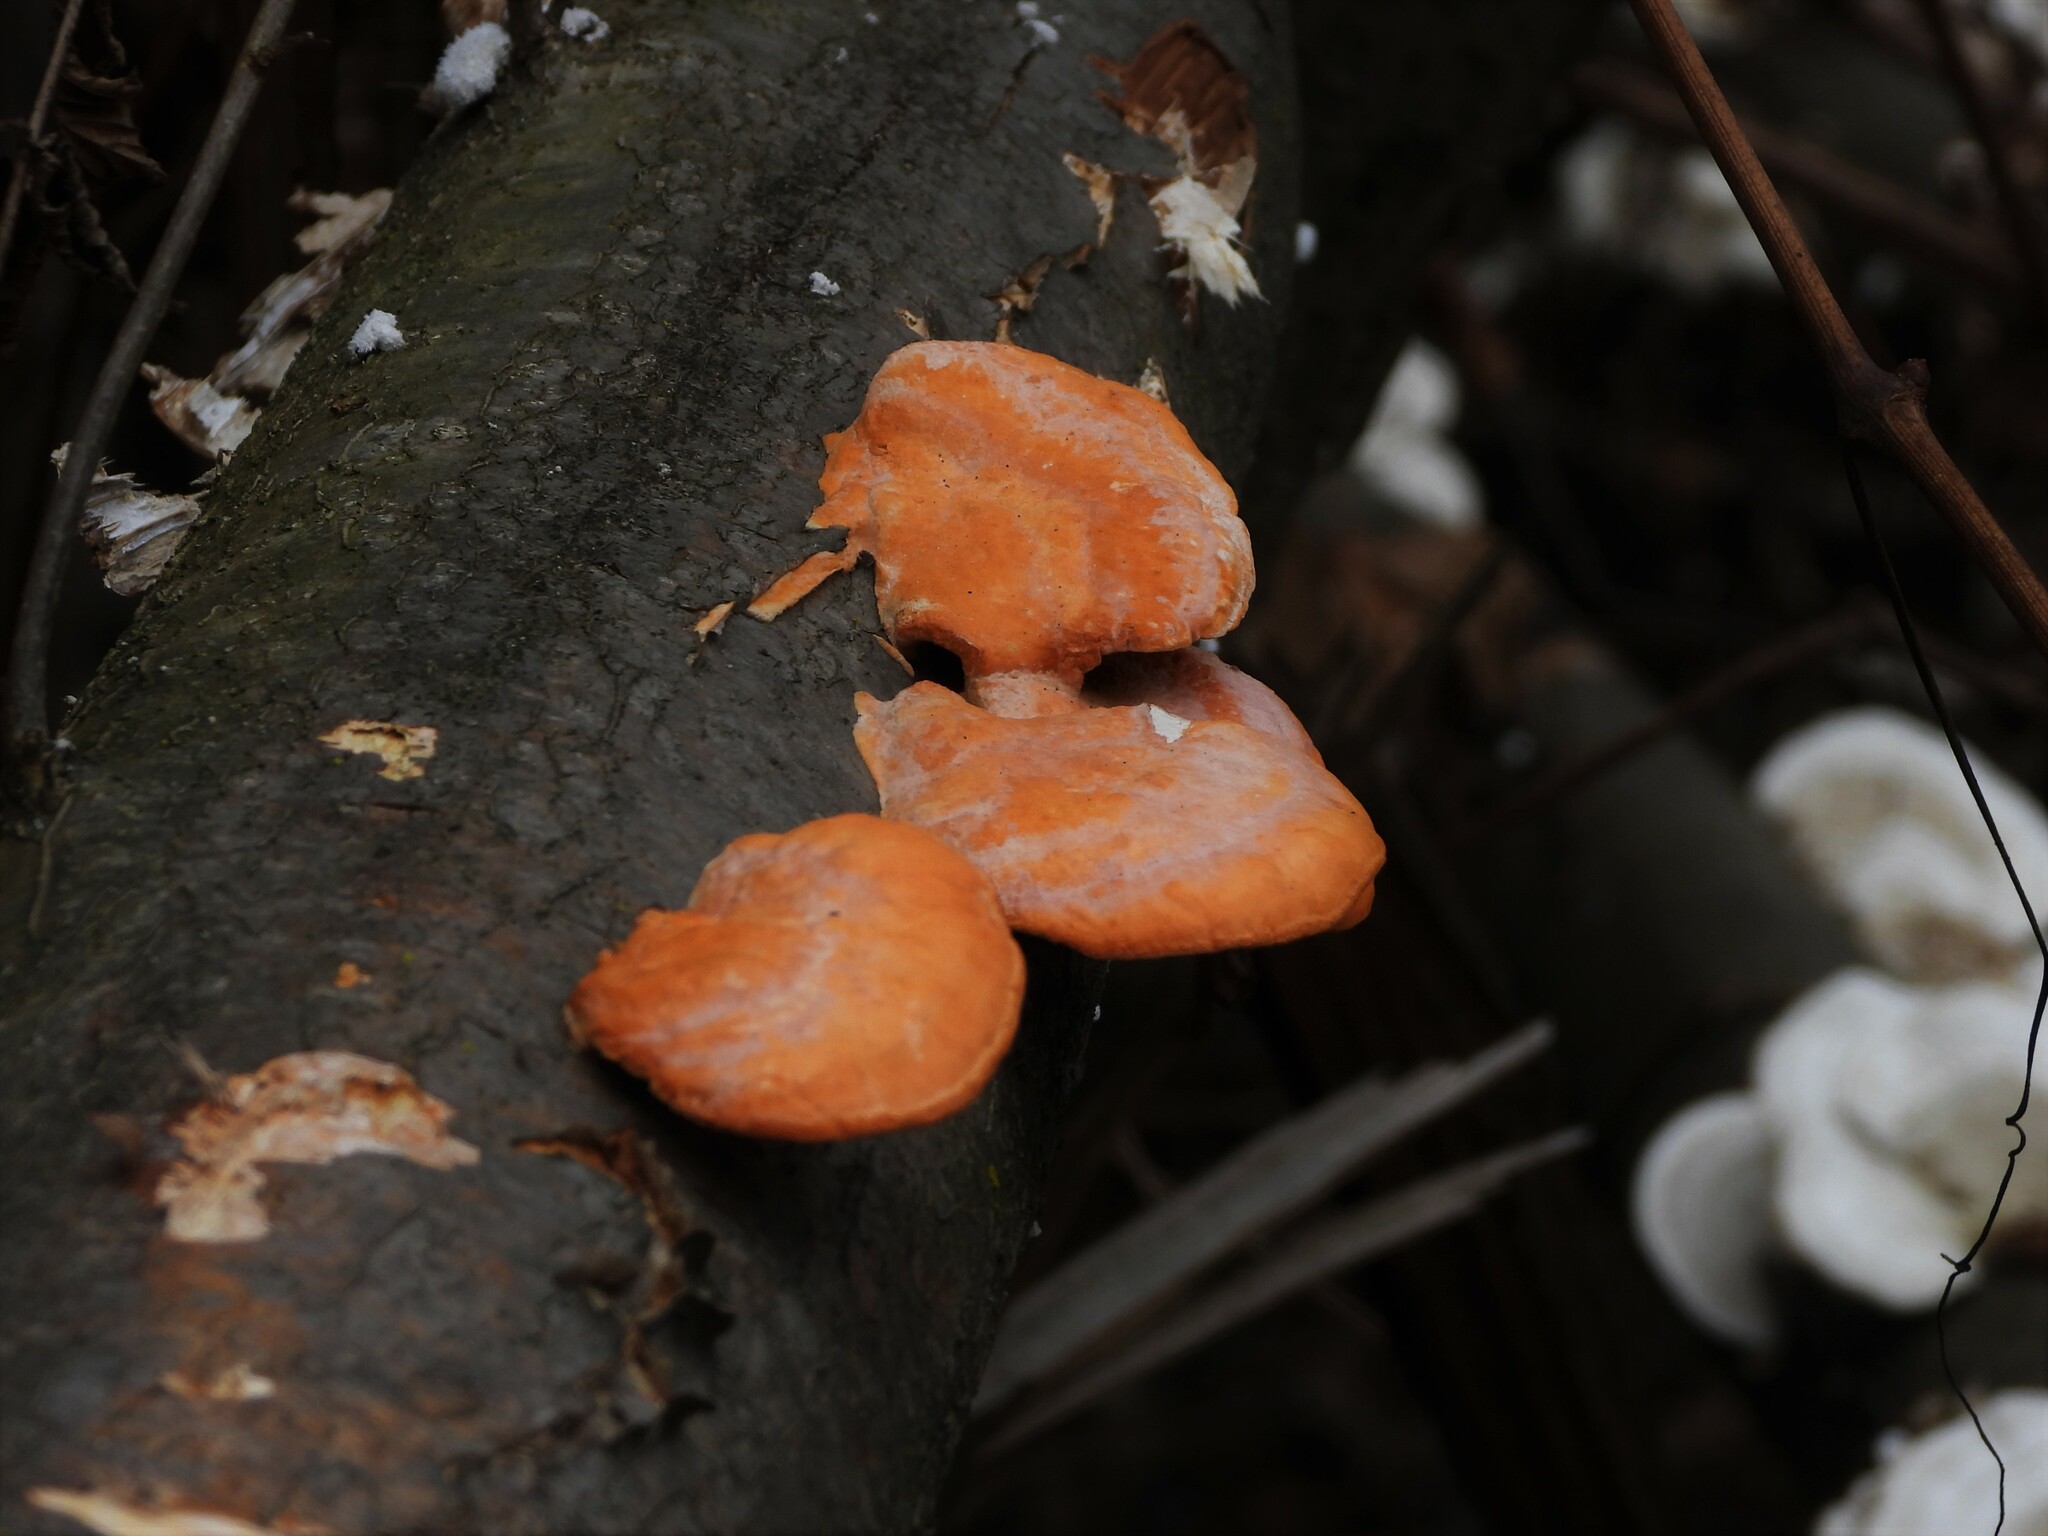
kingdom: Fungi
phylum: Basidiomycota
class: Agaricomycetes
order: Polyporales
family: Polyporaceae
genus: Trametes
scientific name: Trametes cinnabarina
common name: Northern cinnabar polypore
